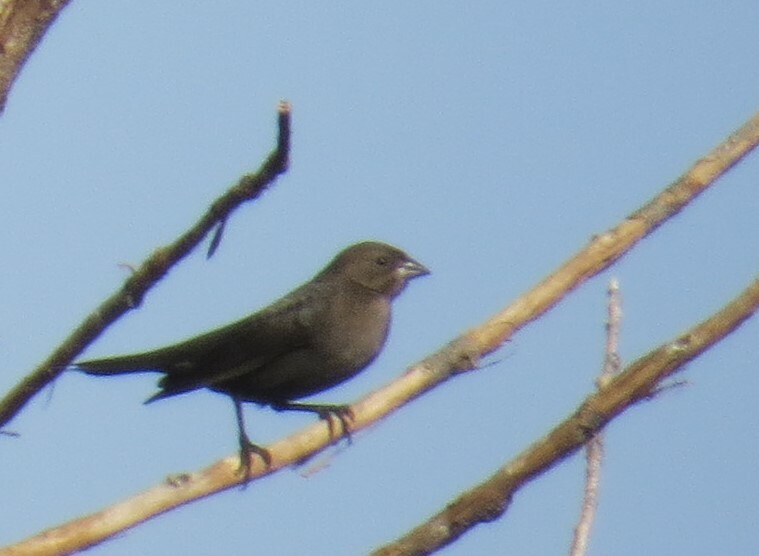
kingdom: Animalia
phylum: Chordata
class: Aves
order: Passeriformes
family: Icteridae
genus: Molothrus
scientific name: Molothrus ater
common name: Brown-headed cowbird
